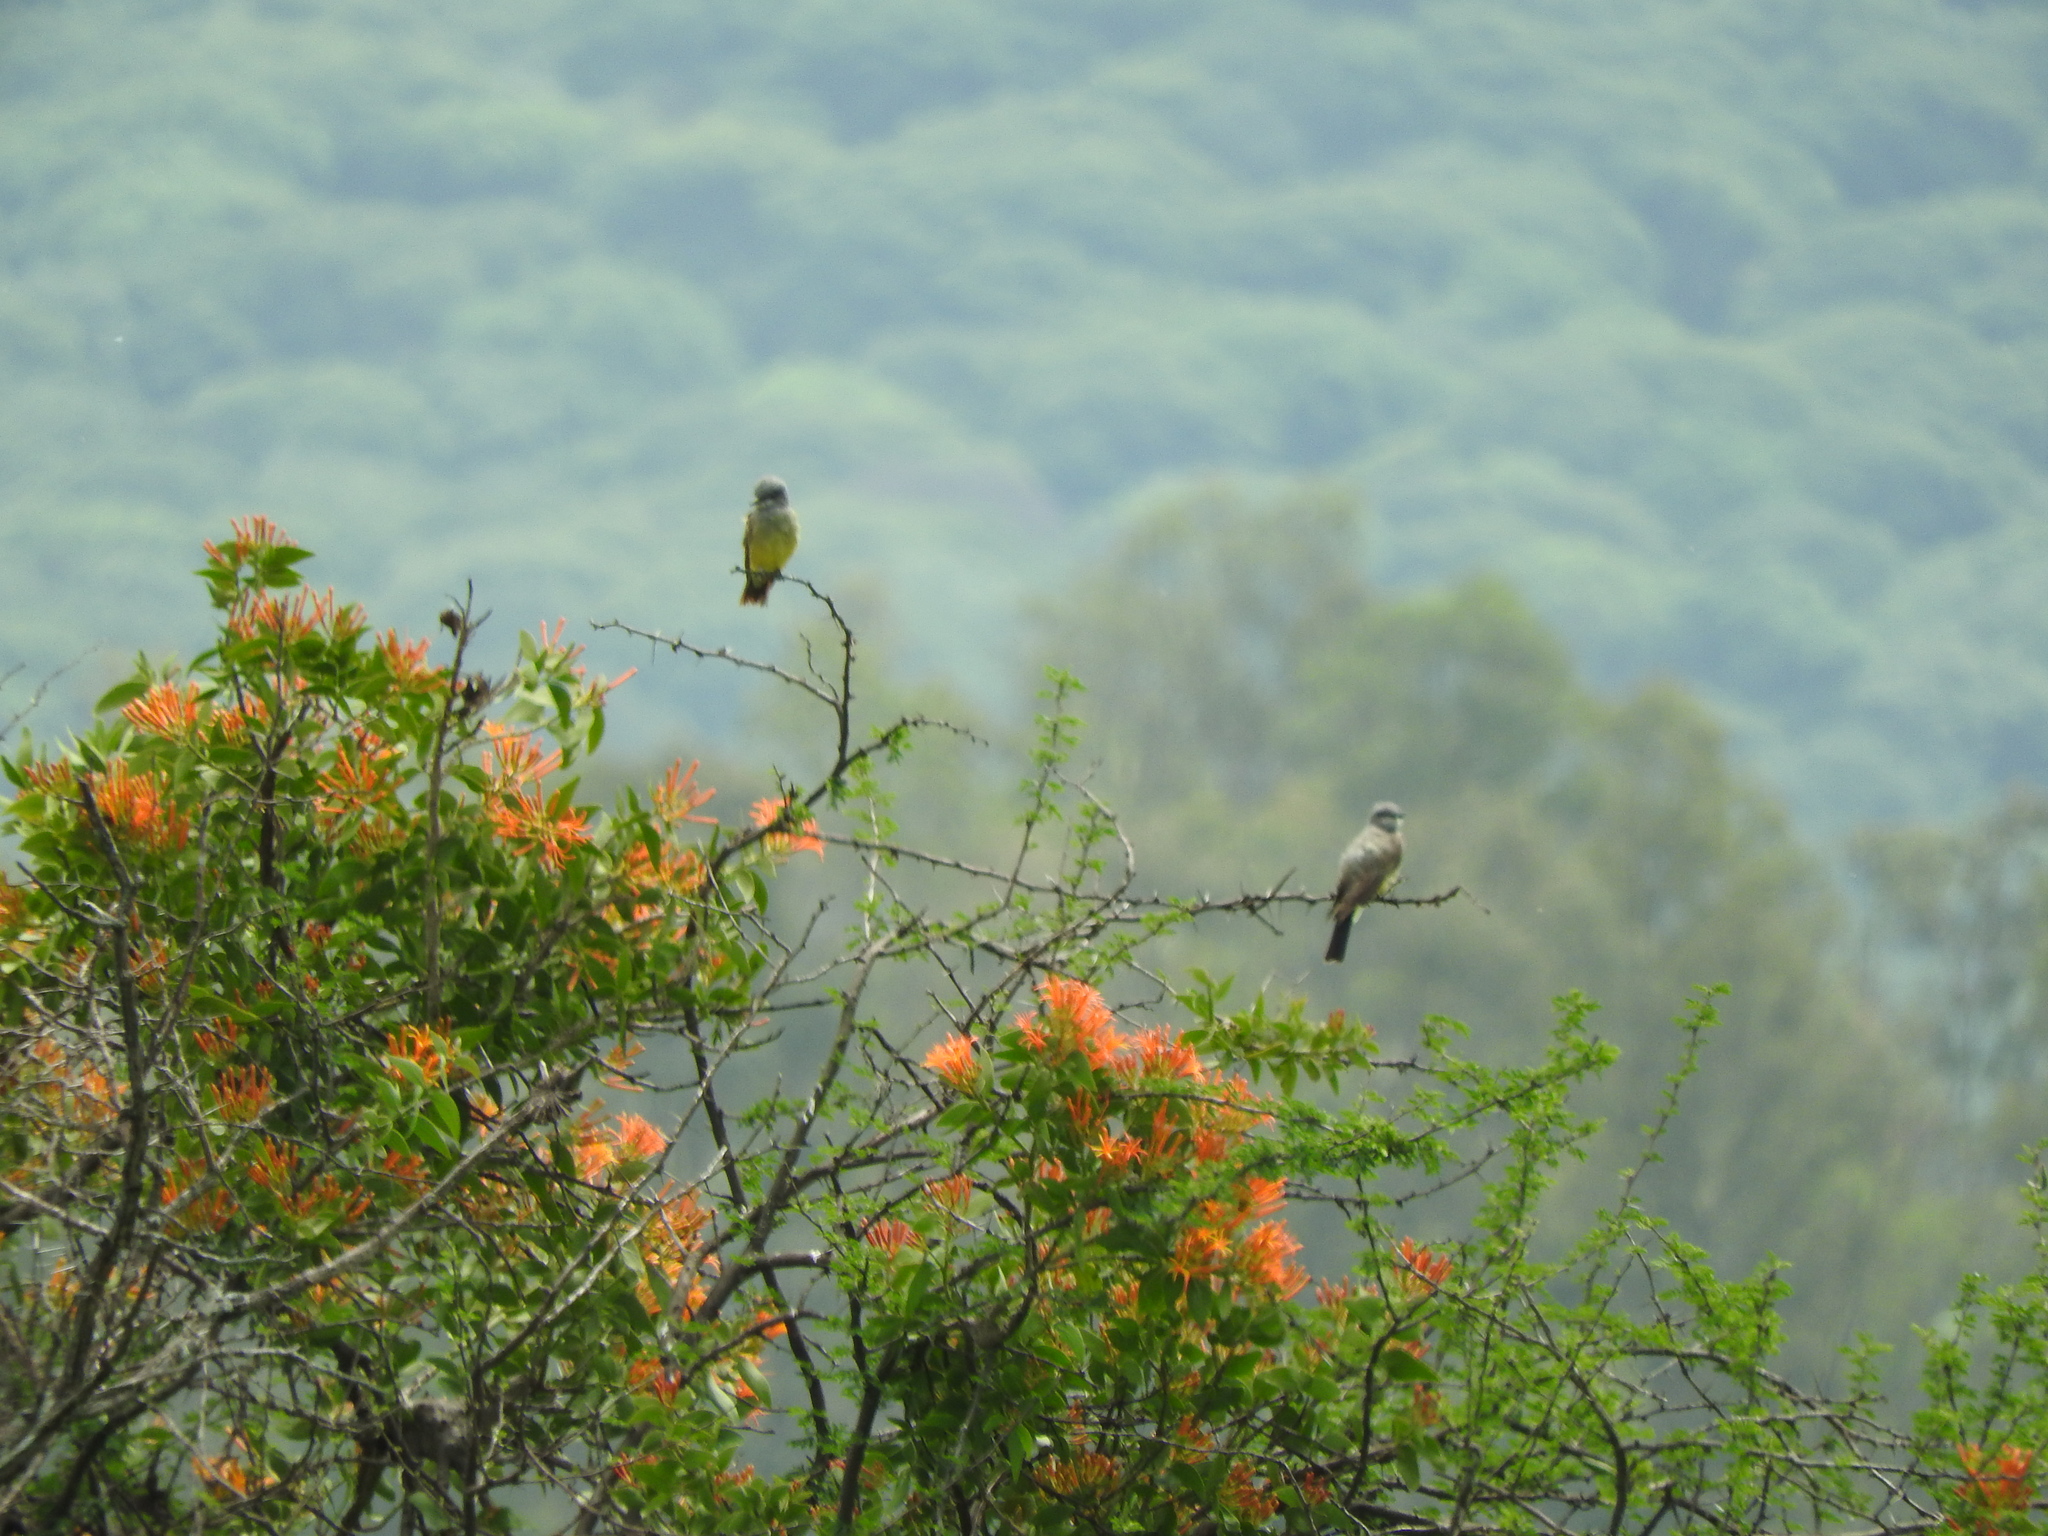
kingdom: Animalia
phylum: Chordata
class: Aves
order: Passeriformes
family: Tyrannidae
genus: Tyrannus
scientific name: Tyrannus vociferans
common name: Cassin's kingbird
